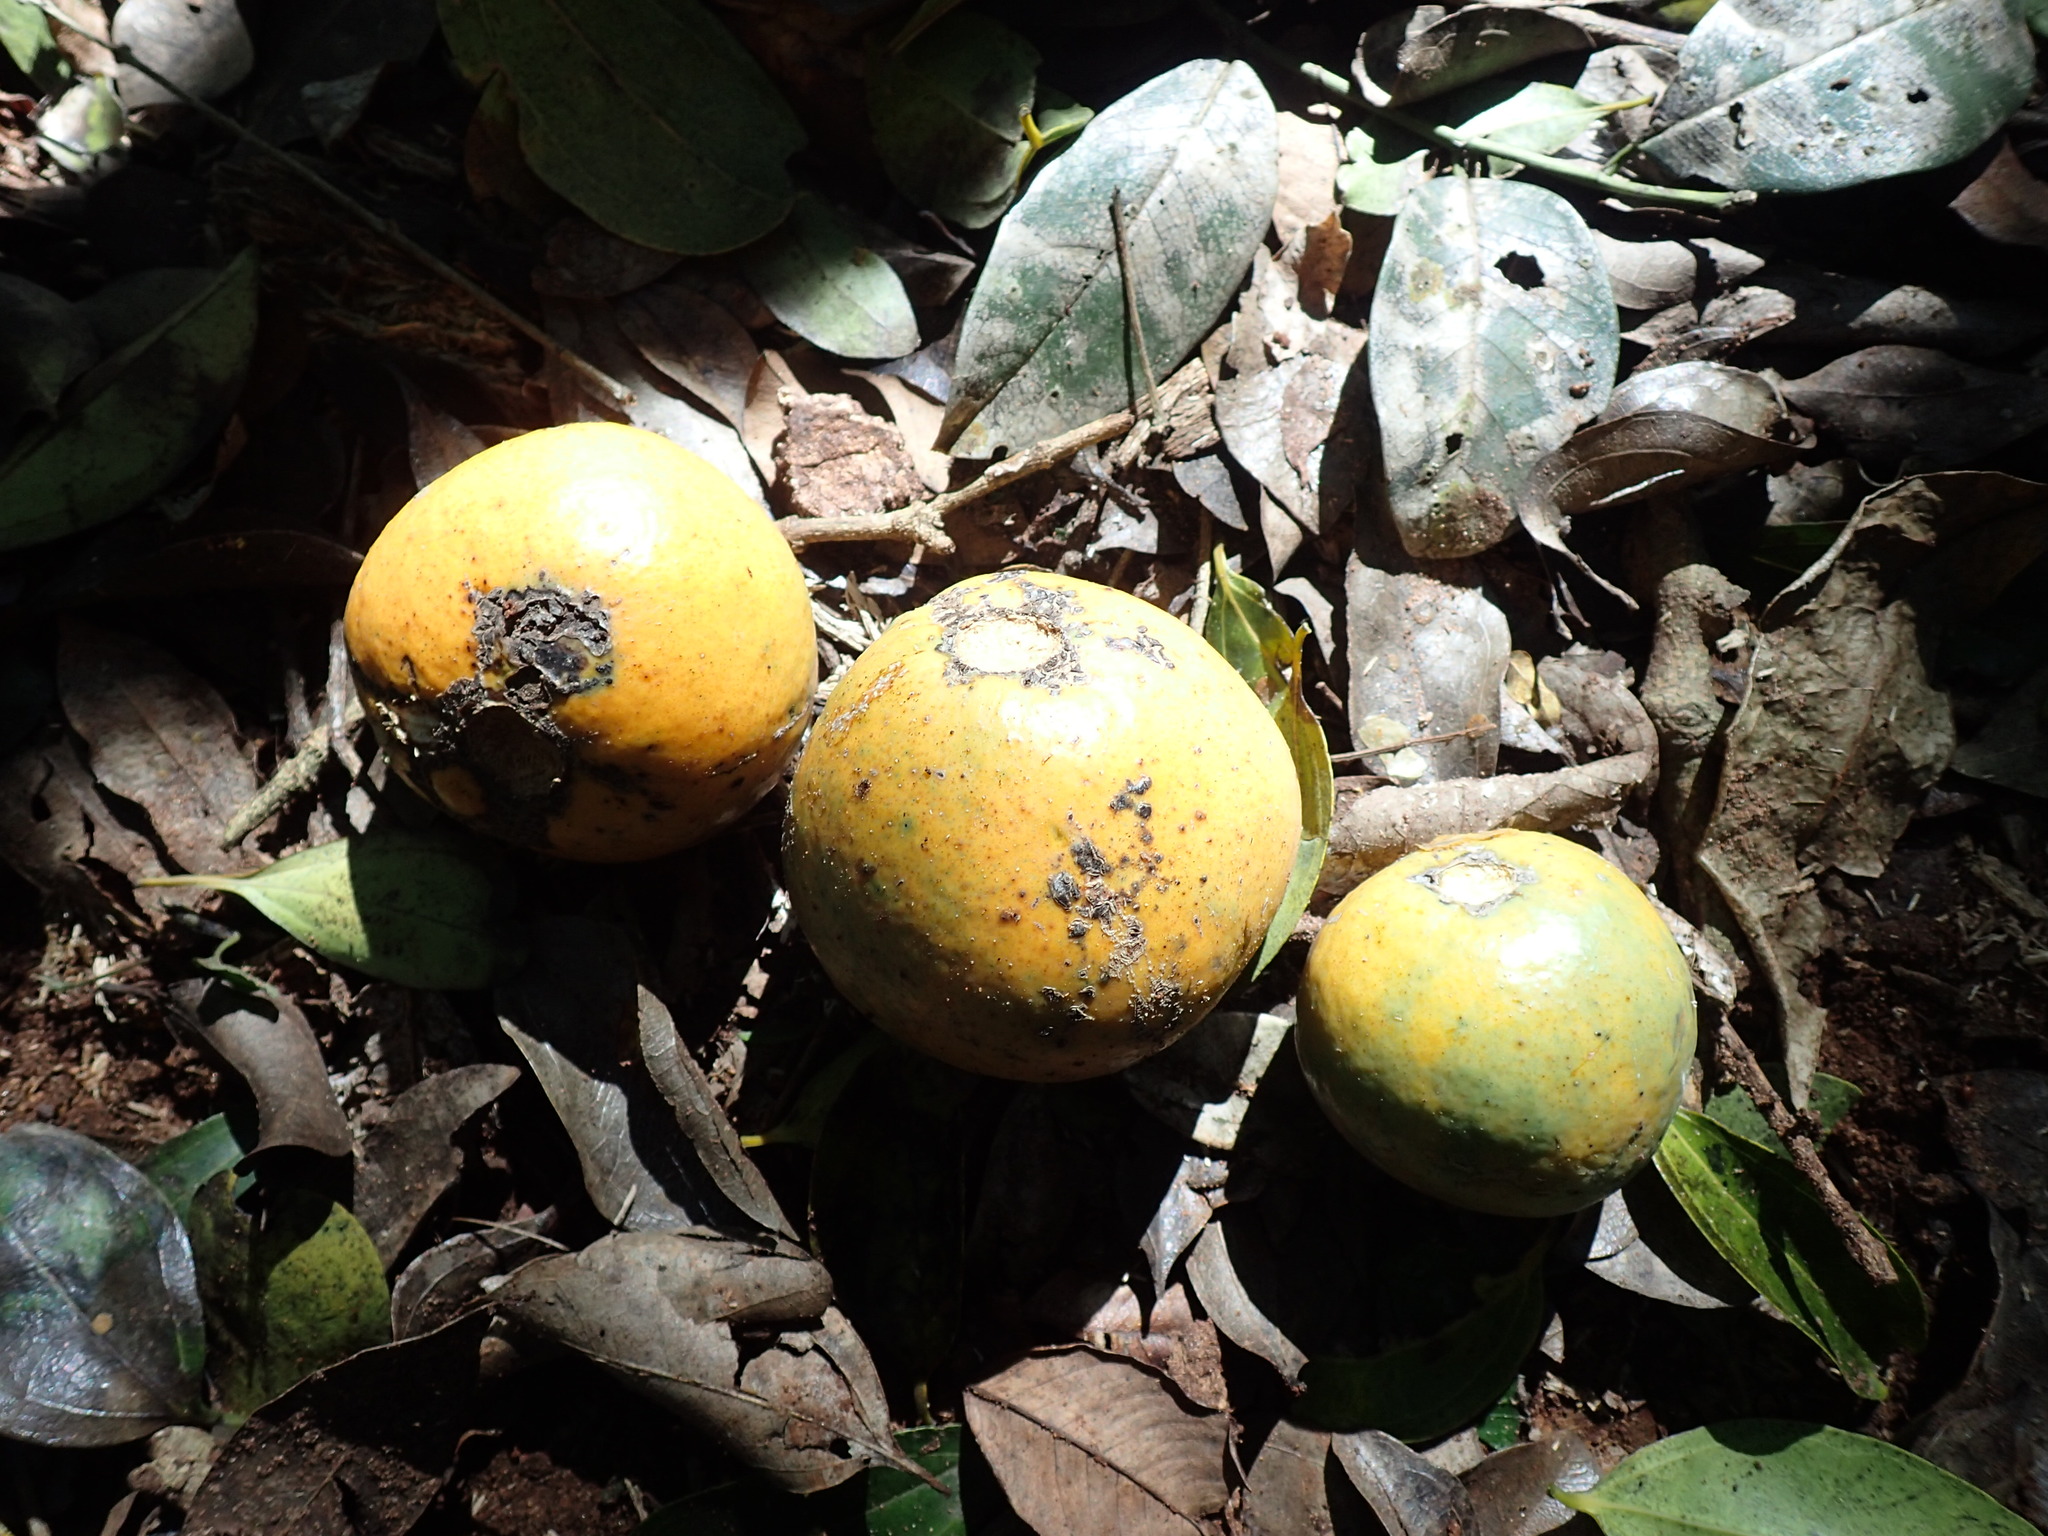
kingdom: Plantae
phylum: Tracheophyta
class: Magnoliopsida
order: Gentianales
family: Loganiaceae
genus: Strychnos
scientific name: Strychnos gerrardii
